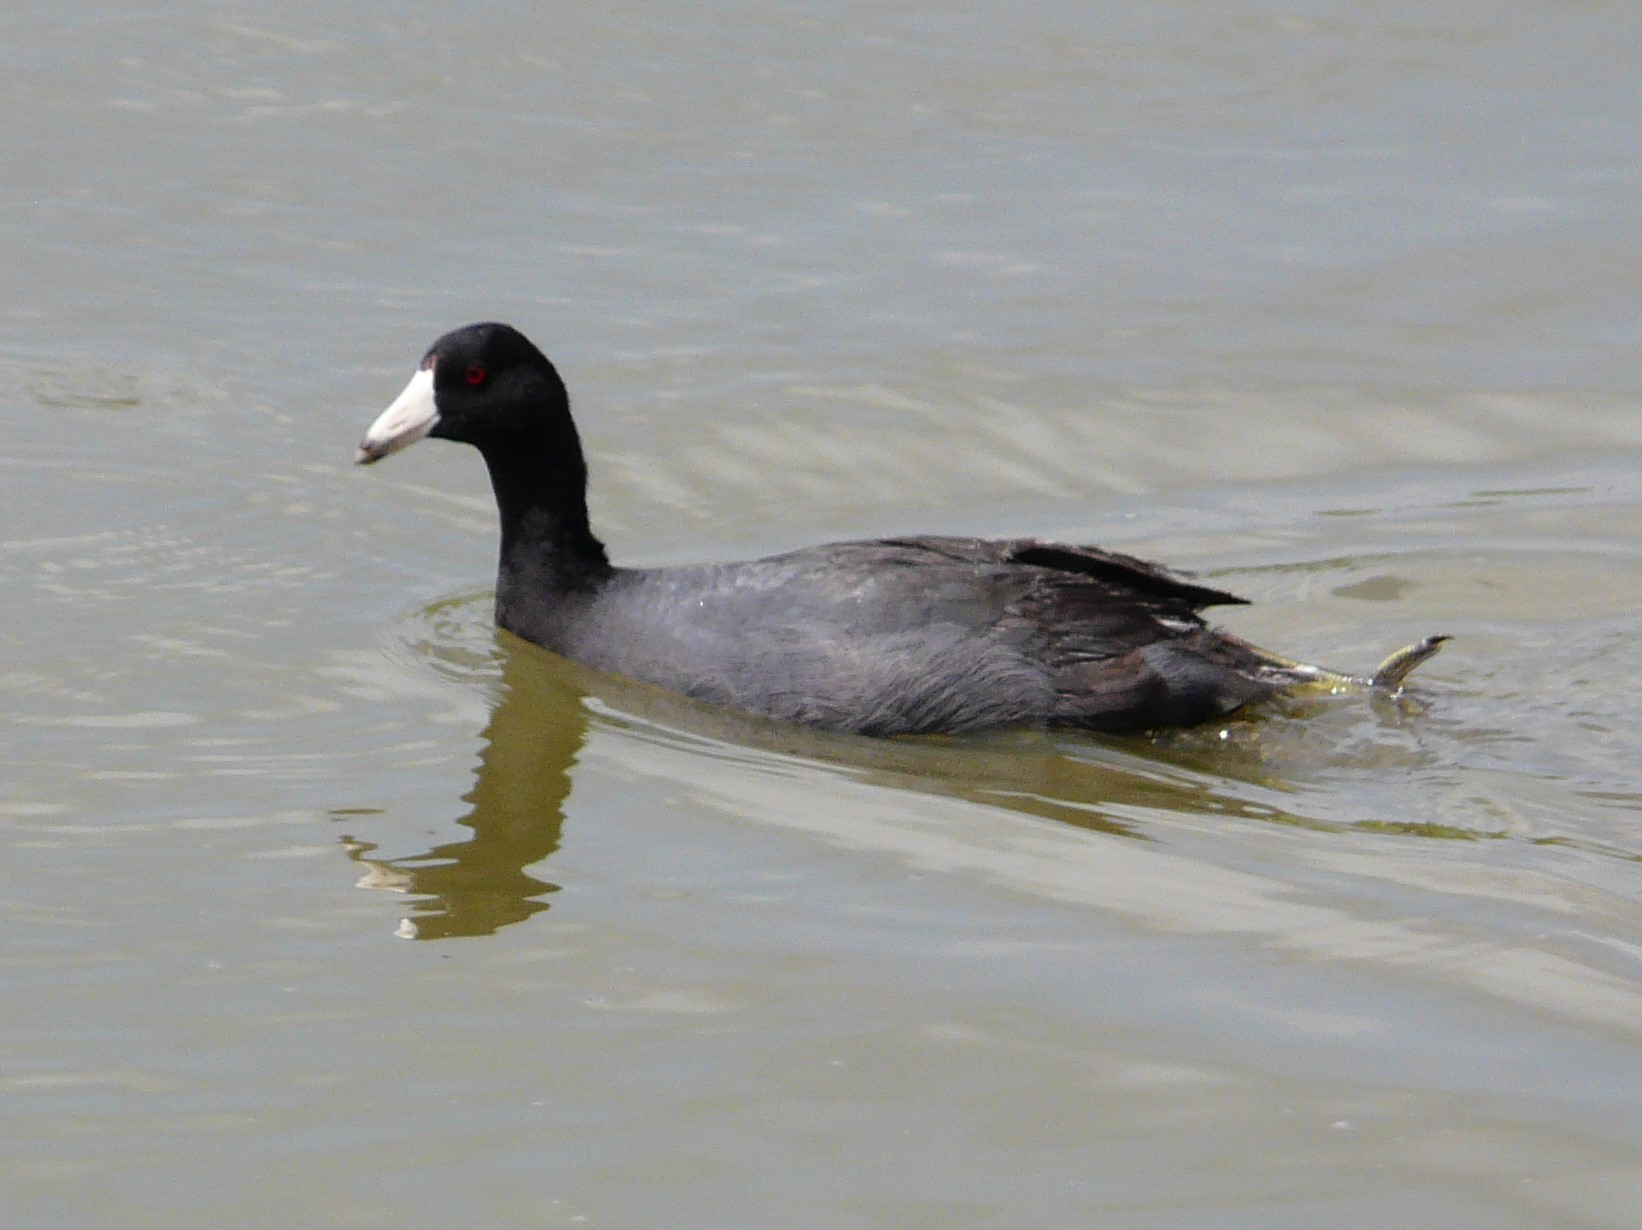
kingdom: Animalia
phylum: Chordata
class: Aves
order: Gruiformes
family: Rallidae
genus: Fulica
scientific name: Fulica americana
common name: American coot
